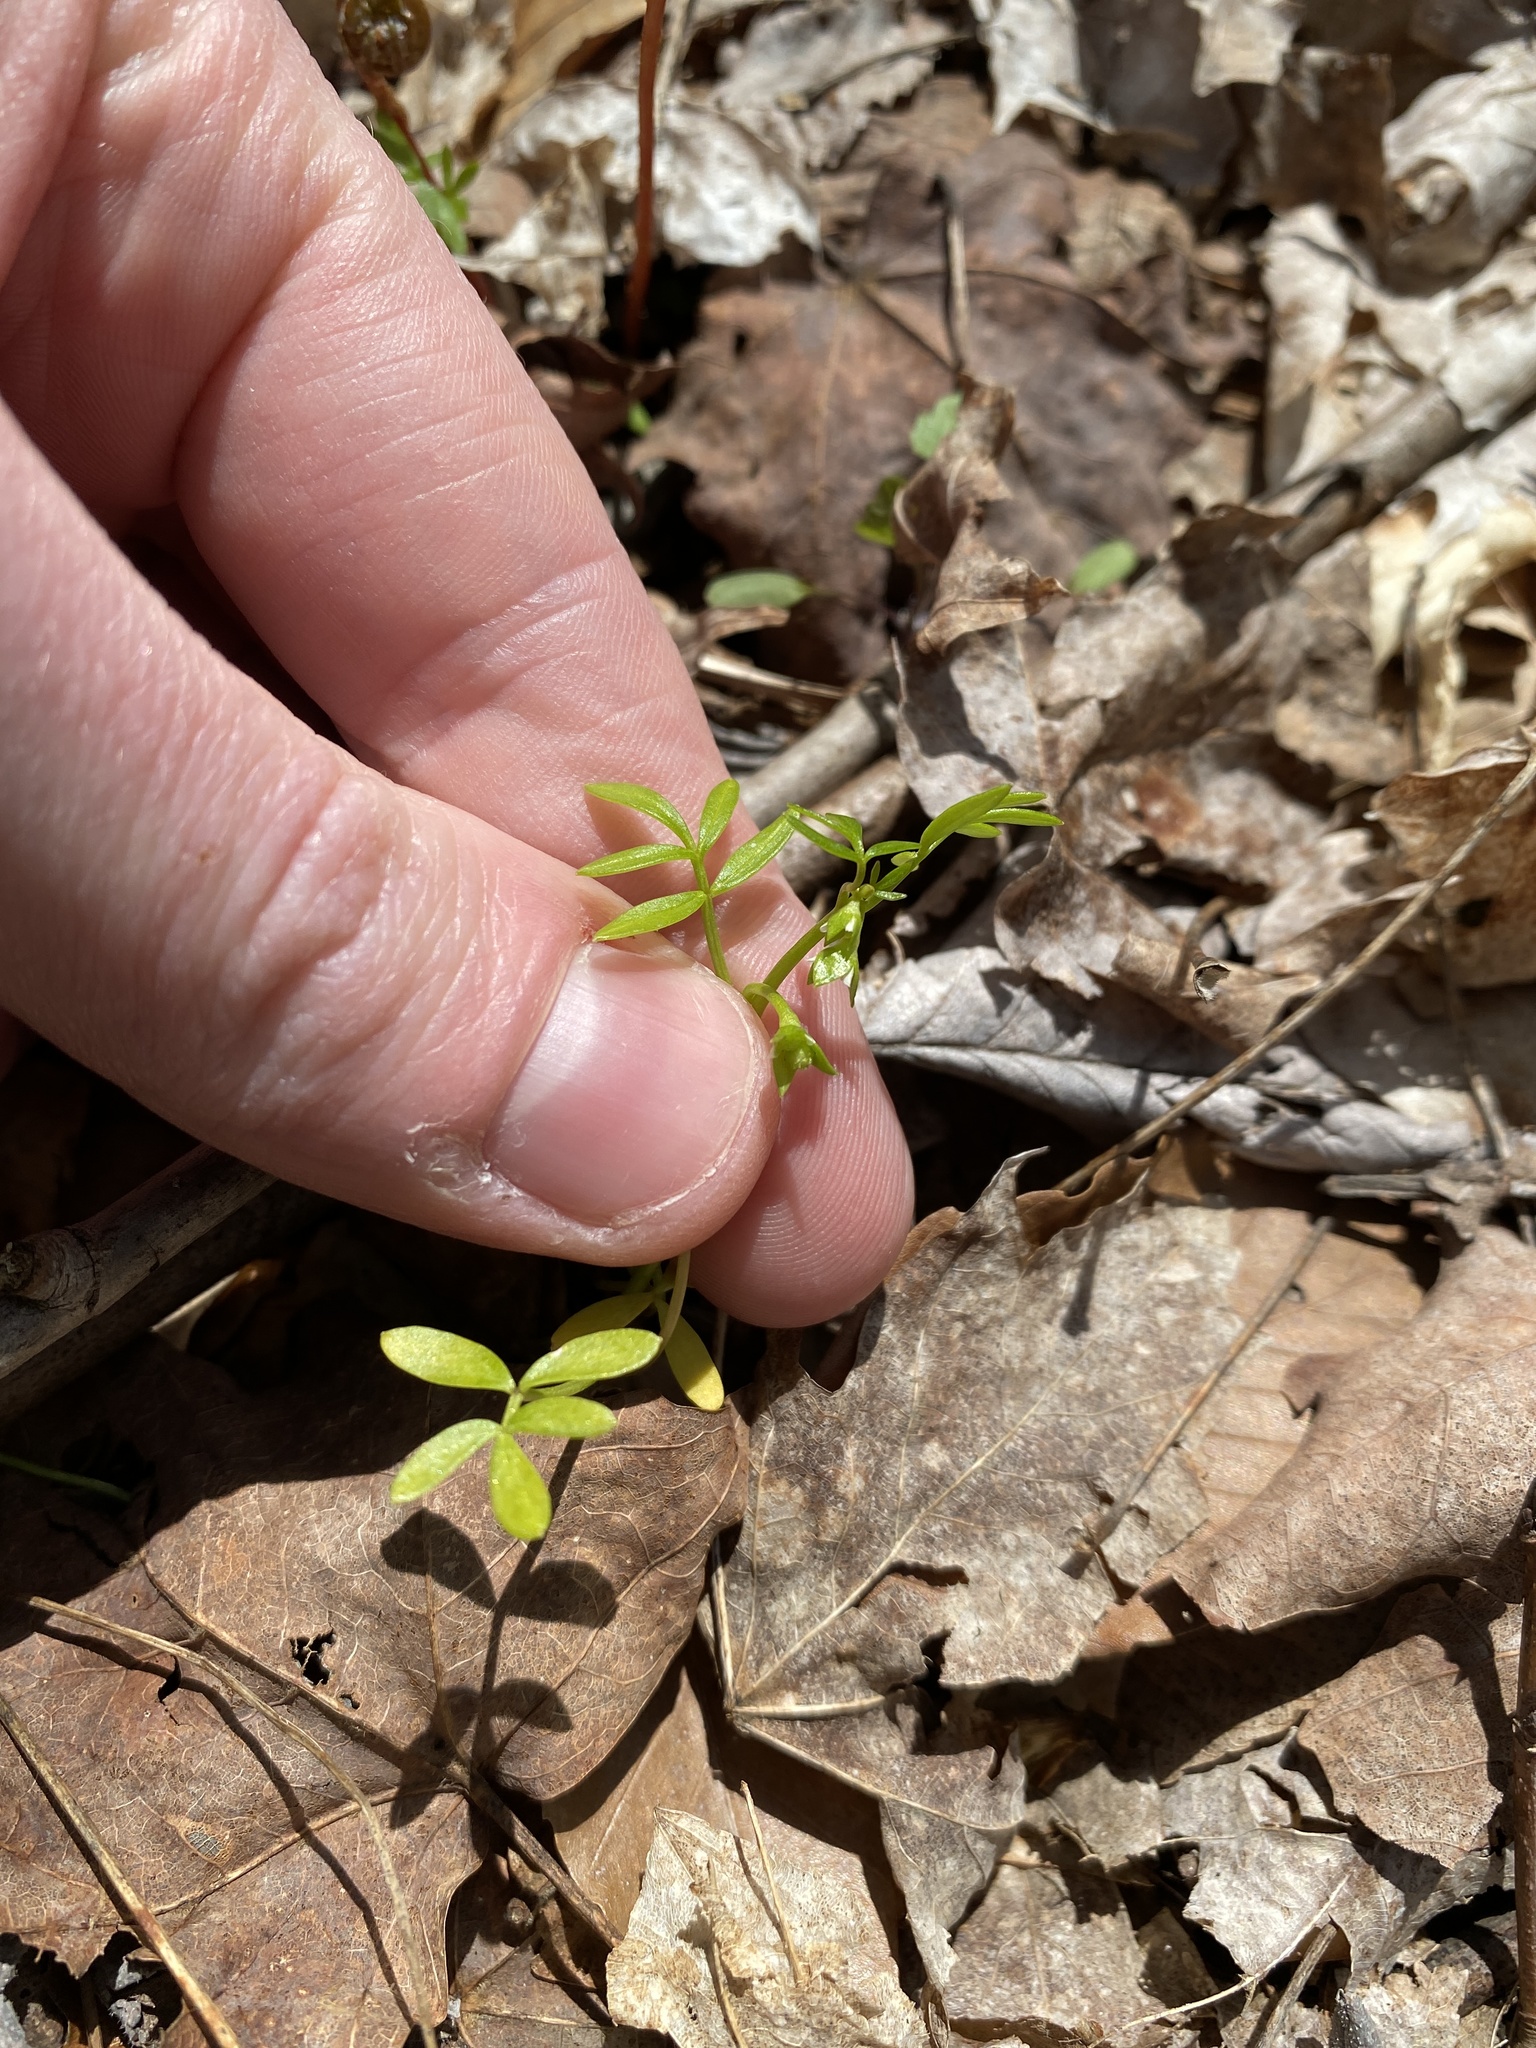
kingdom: Plantae
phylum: Tracheophyta
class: Magnoliopsida
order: Brassicales
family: Limnanthaceae
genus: Floerkea
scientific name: Floerkea proserpinacoides
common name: False mermaid
